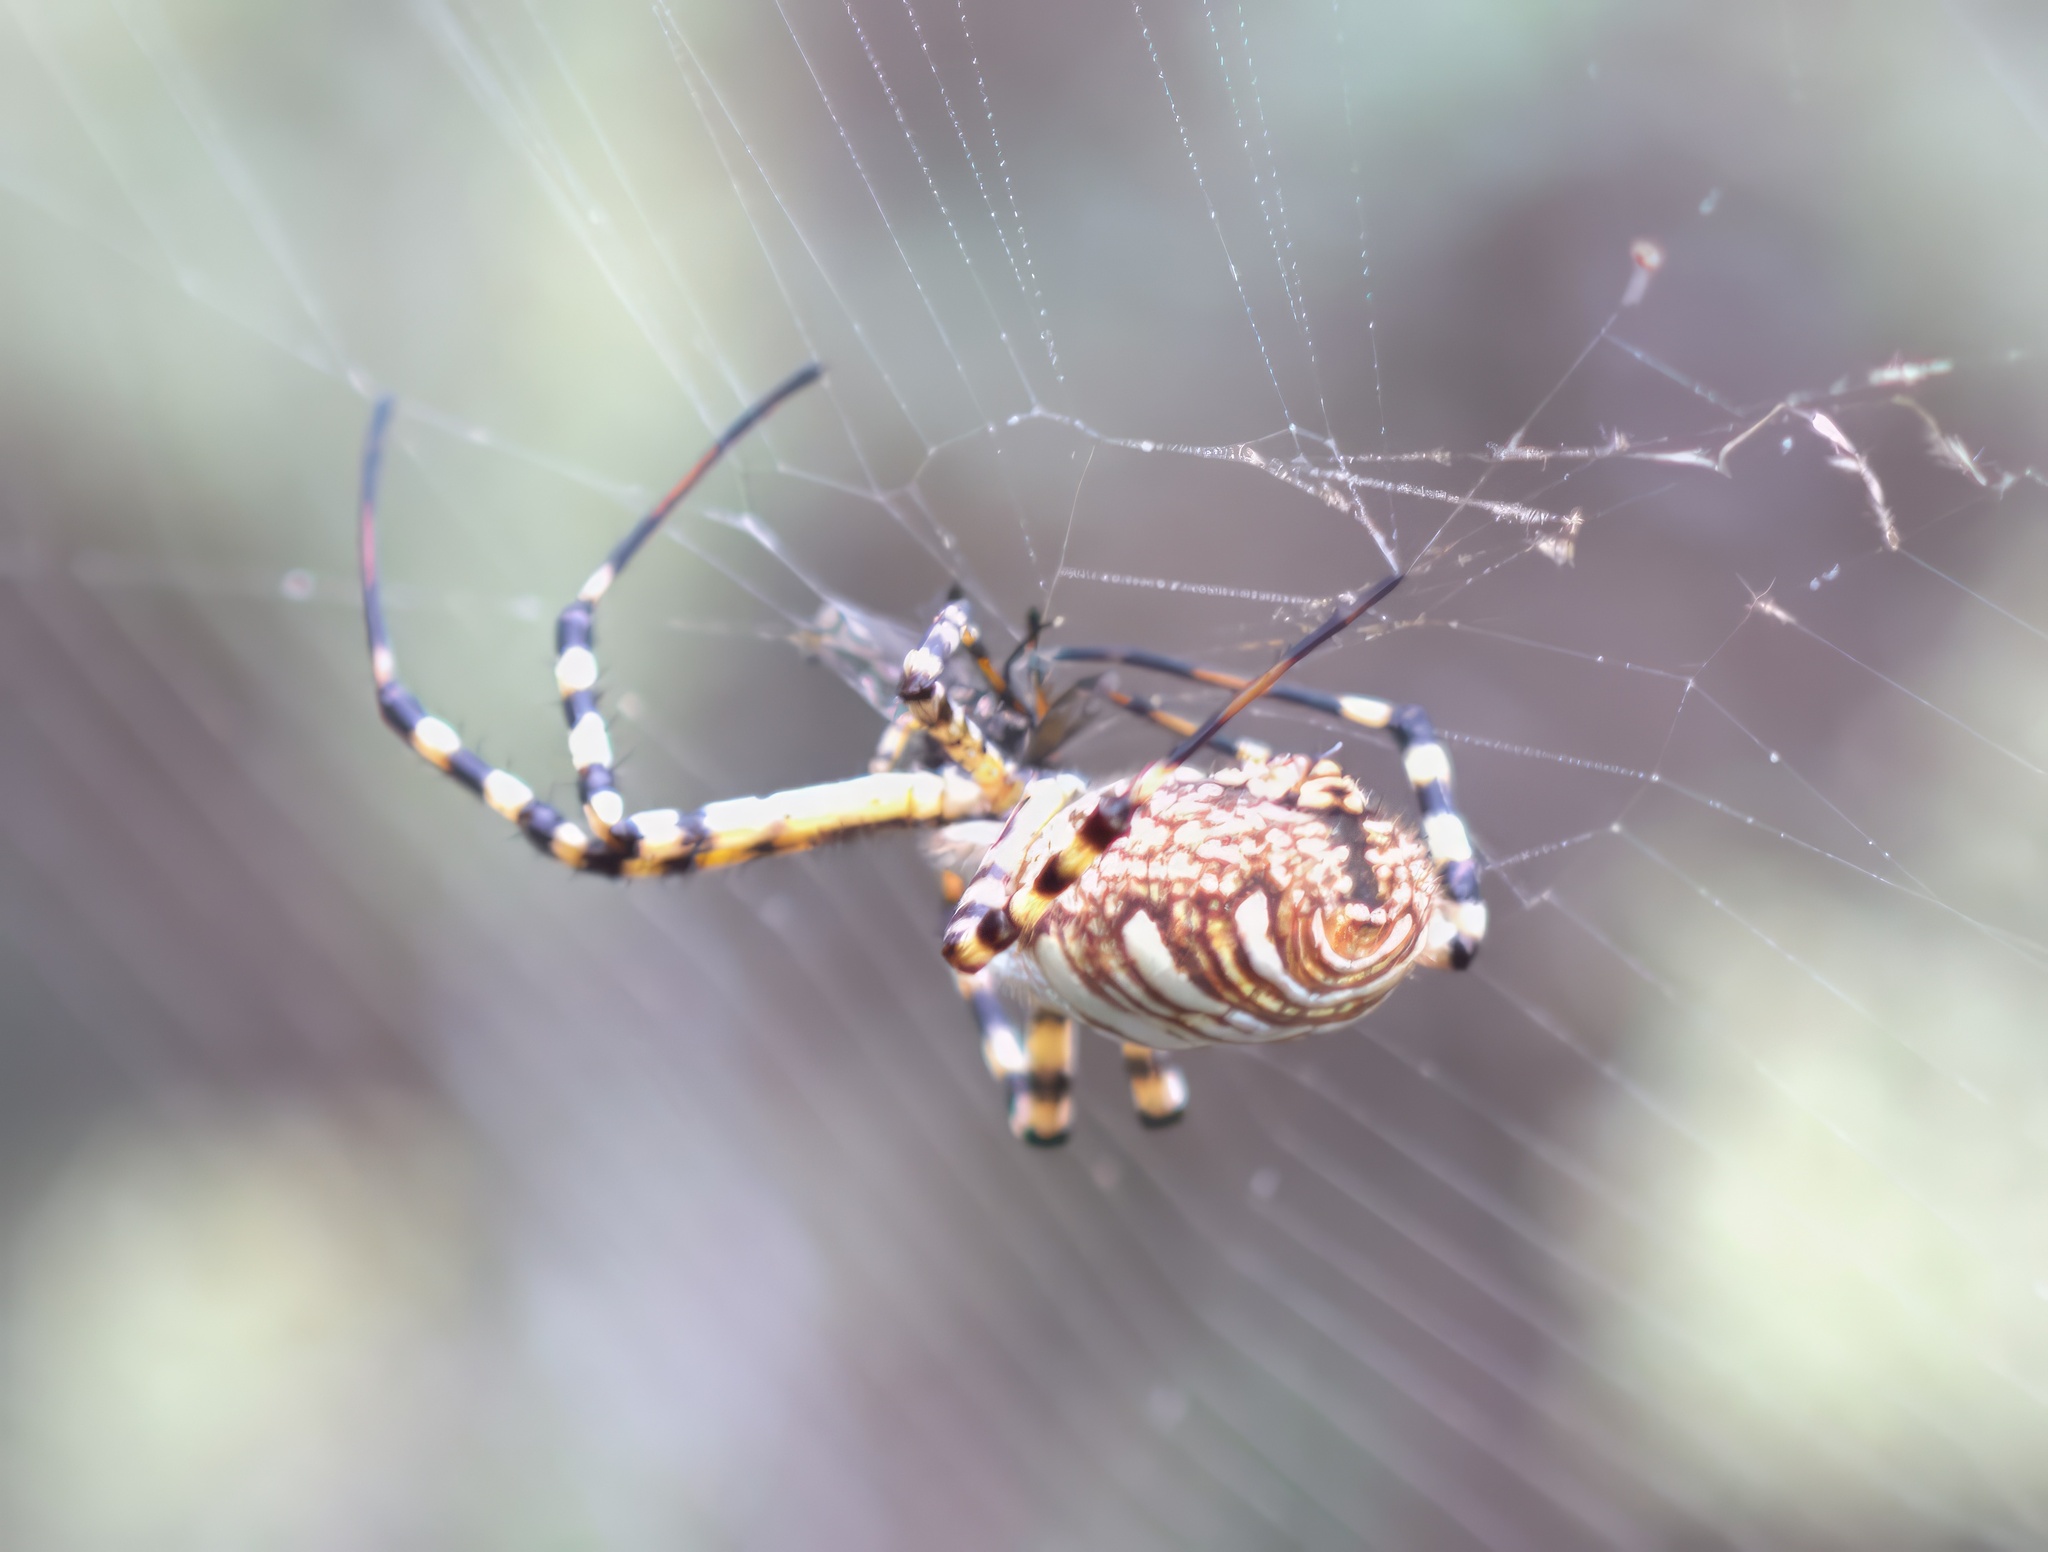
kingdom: Animalia
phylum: Arthropoda
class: Arachnida
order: Araneae
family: Araneidae
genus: Argiope
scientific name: Argiope trifasciata
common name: Banded garden spider
